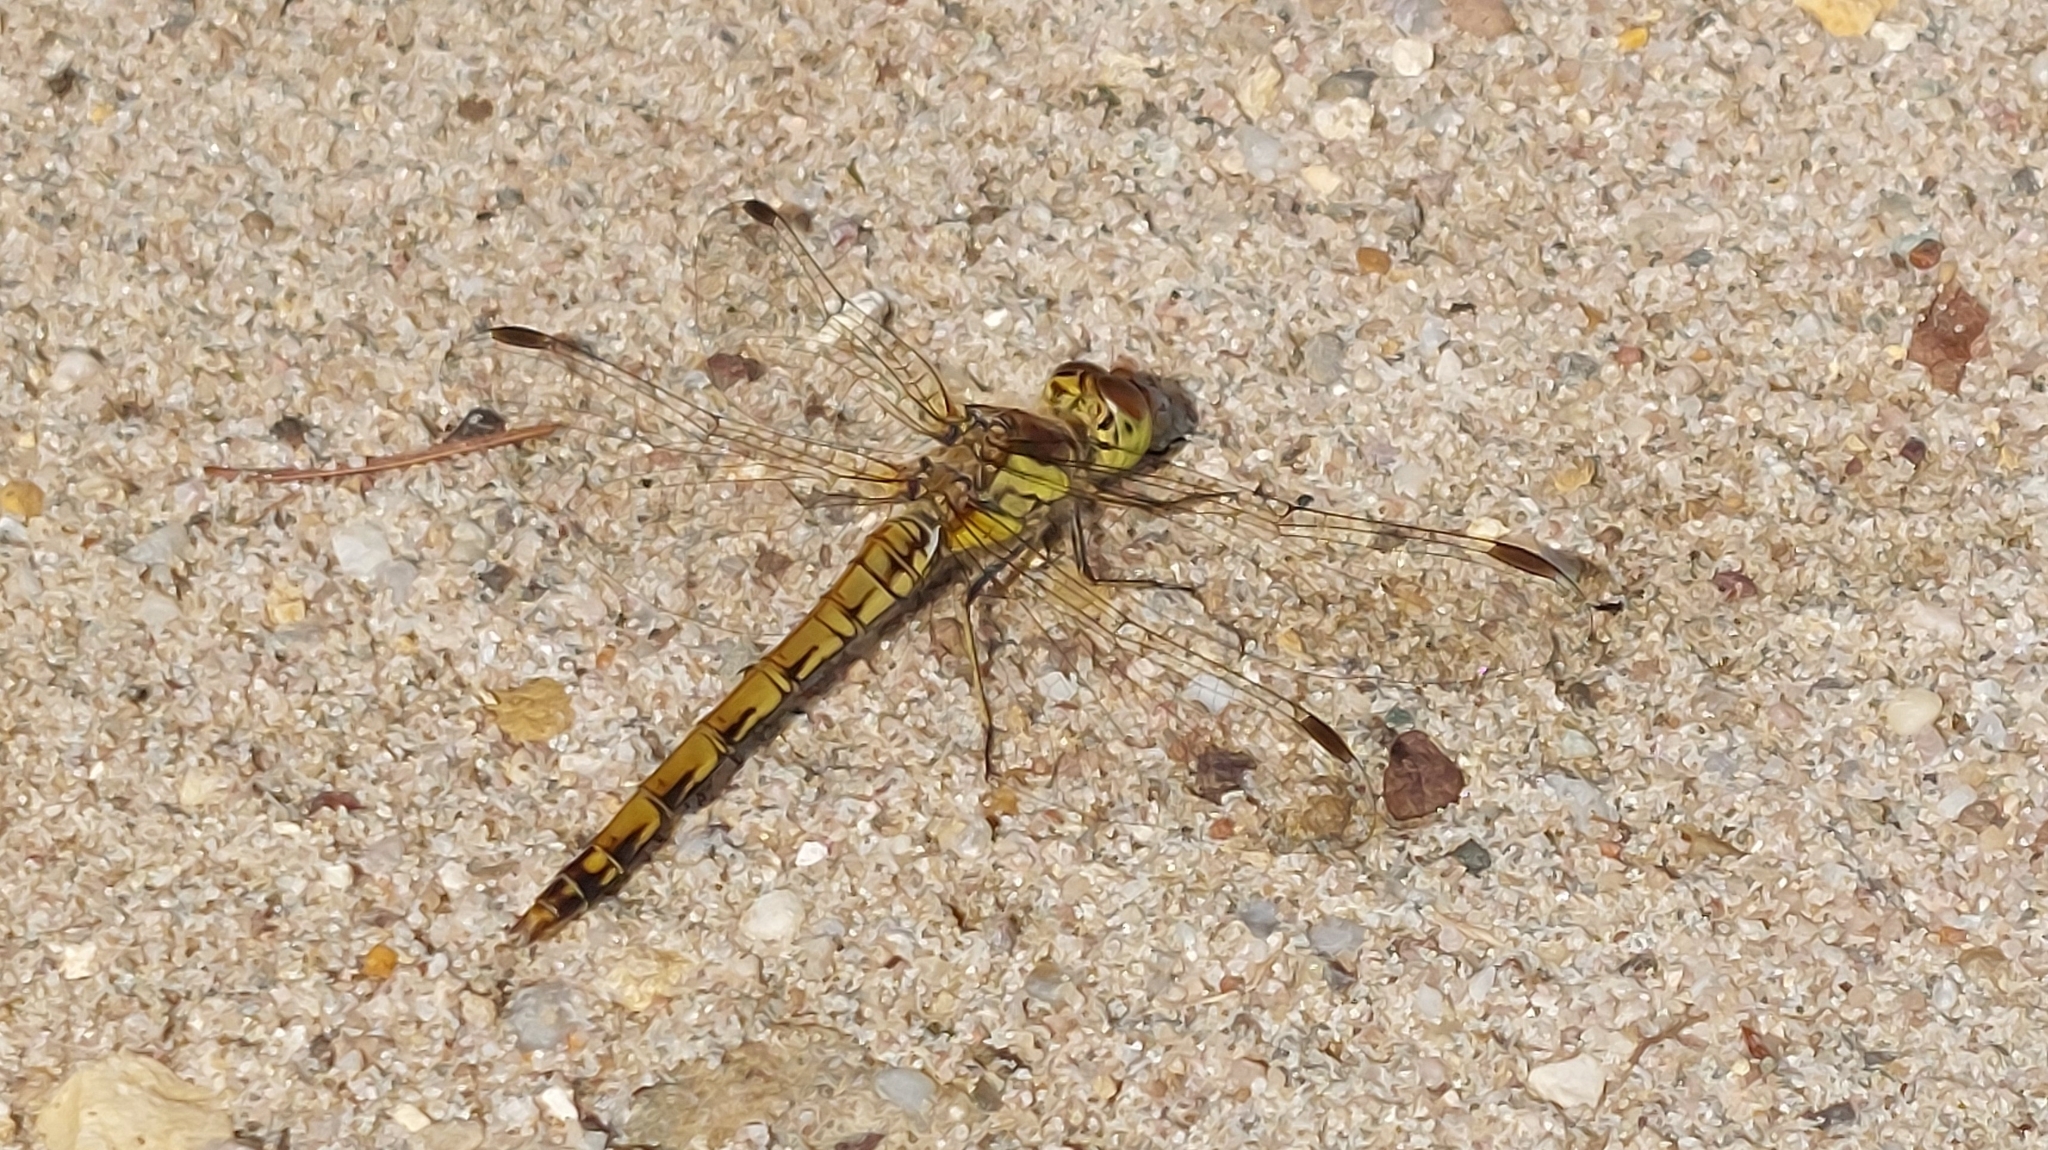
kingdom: Animalia
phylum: Arthropoda
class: Insecta
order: Odonata
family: Libellulidae
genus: Sympetrum
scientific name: Sympetrum striolatum
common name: Common darter
